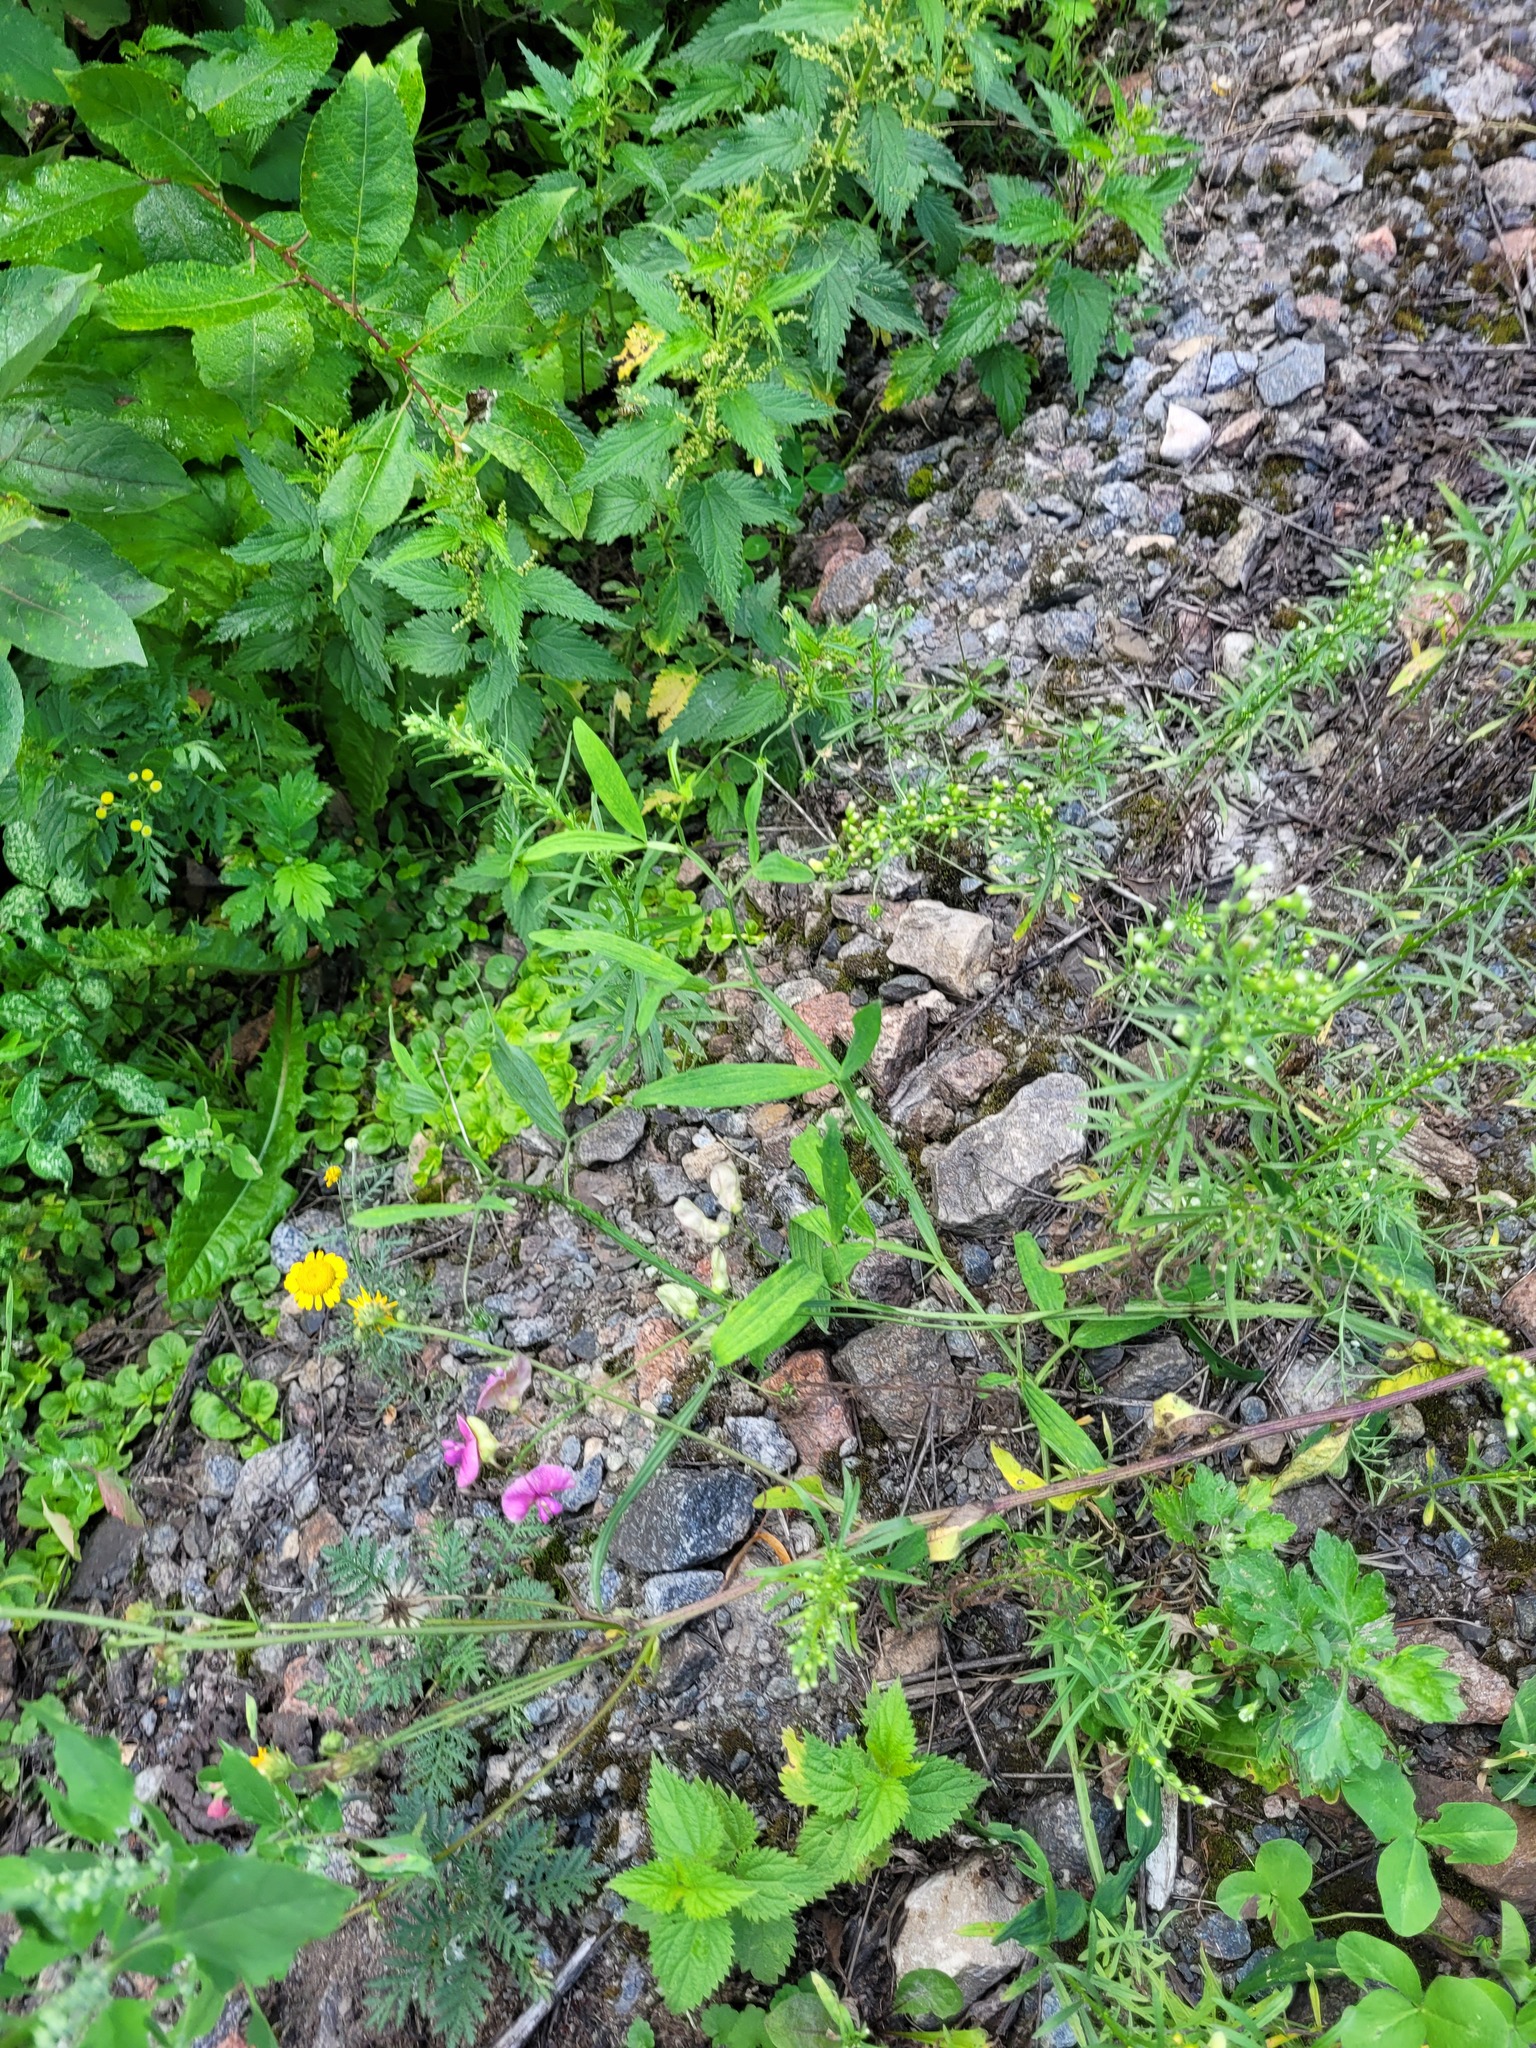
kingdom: Plantae
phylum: Tracheophyta
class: Magnoliopsida
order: Fabales
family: Fabaceae
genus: Lathyrus
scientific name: Lathyrus sylvestris
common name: Flat pea
